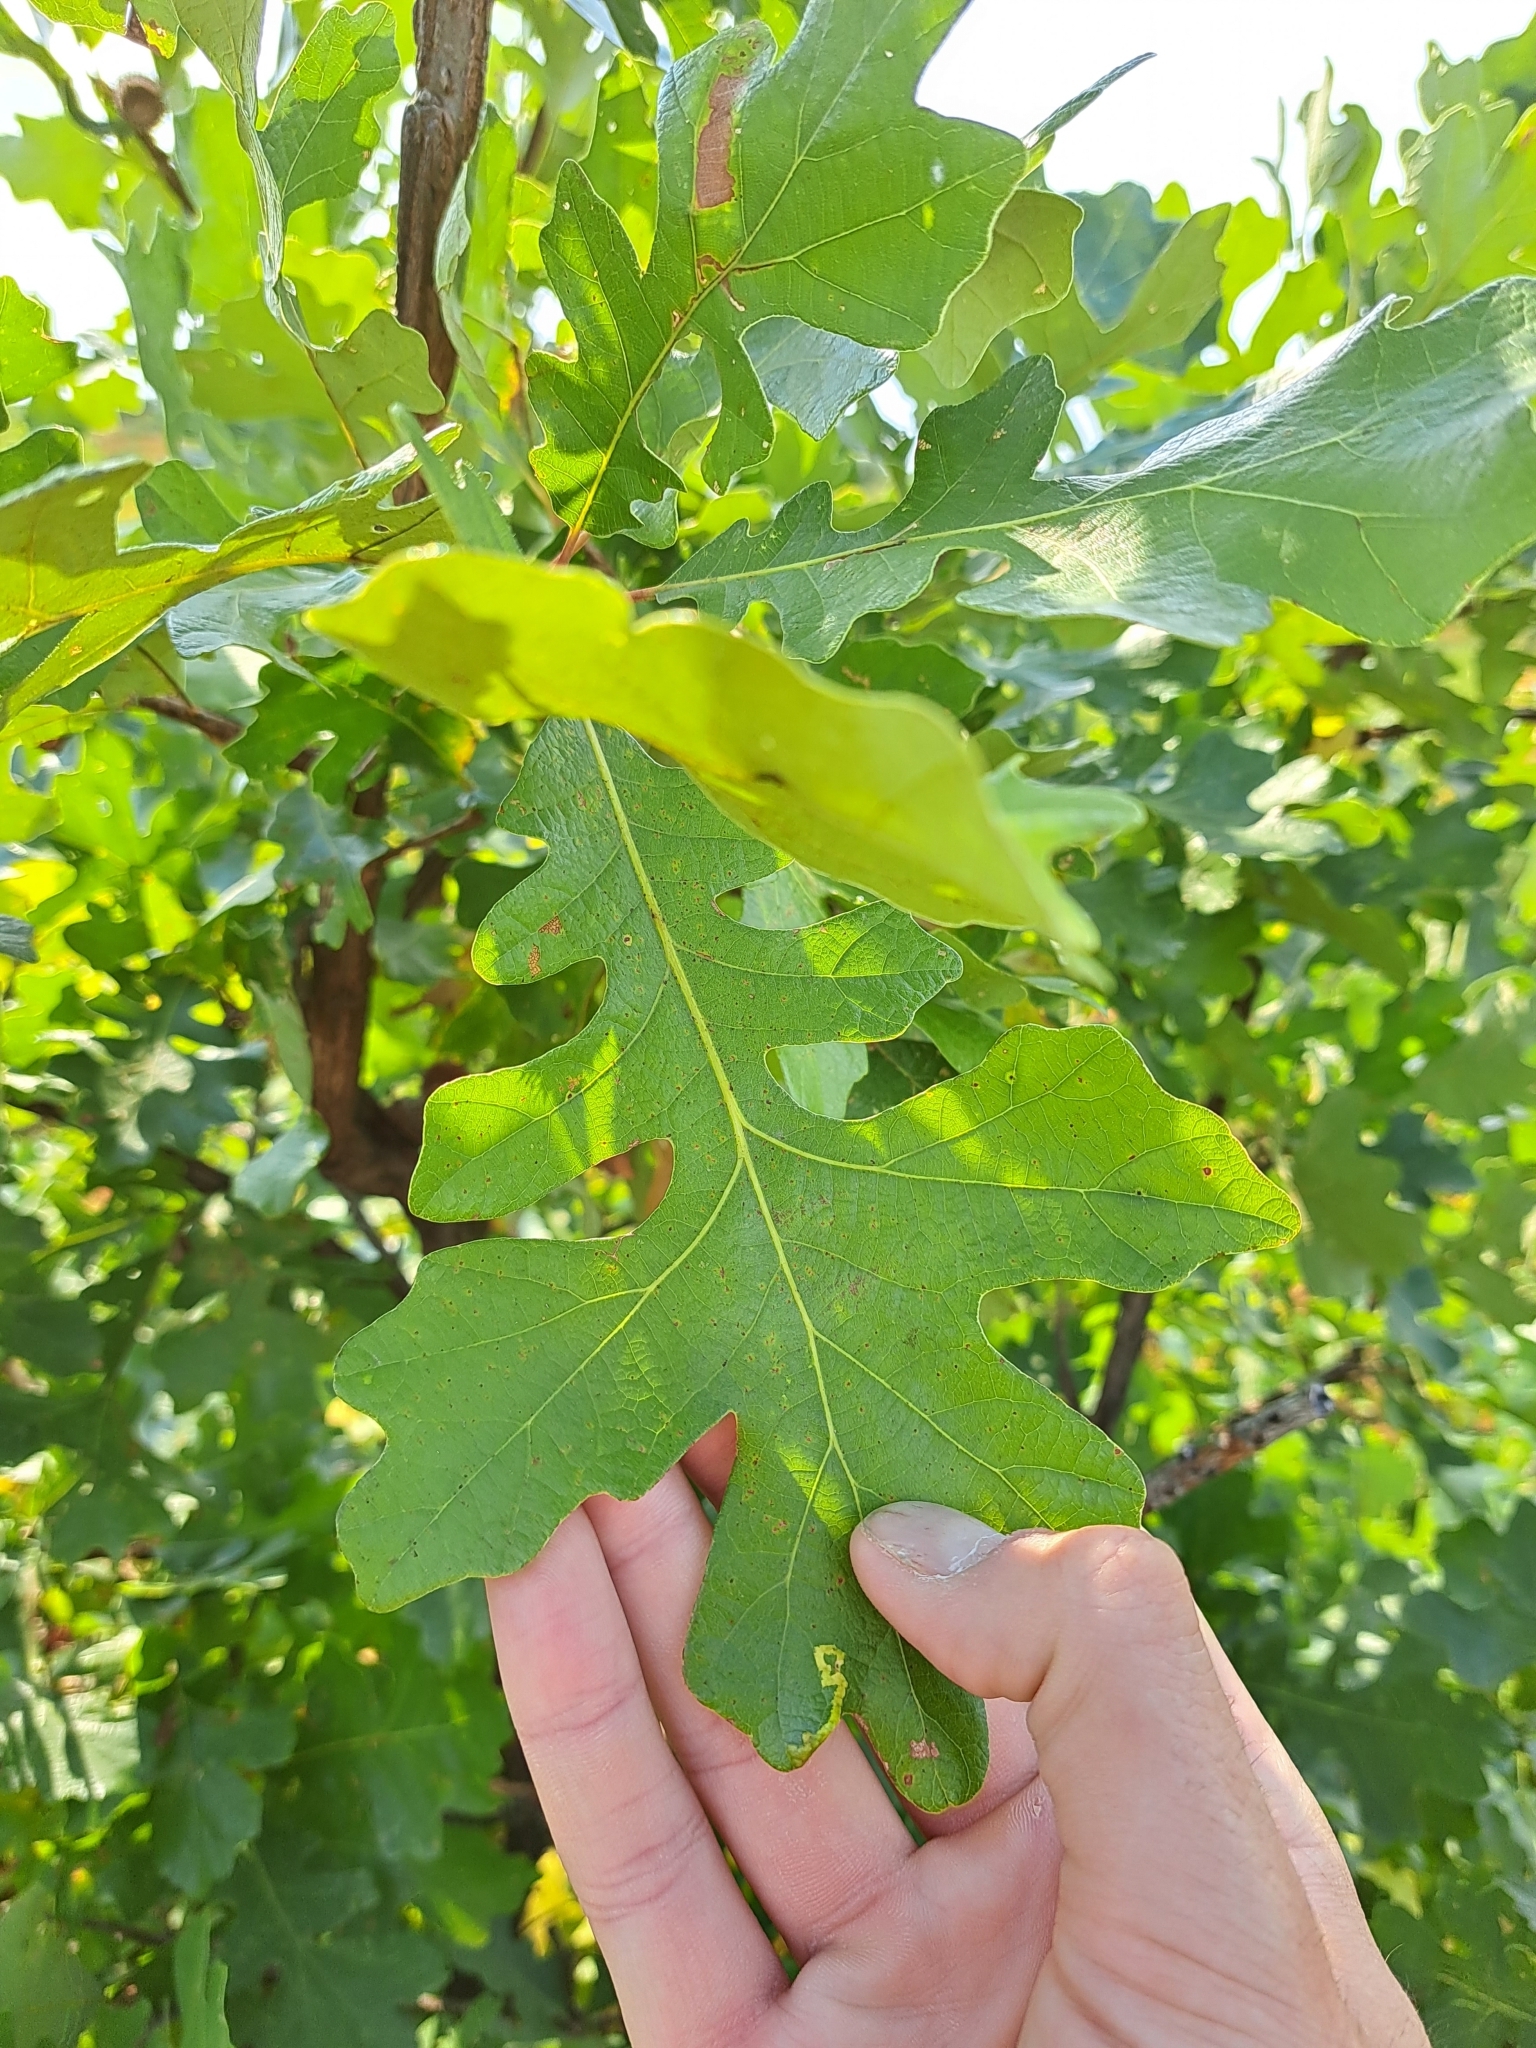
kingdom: Plantae
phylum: Tracheophyta
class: Magnoliopsida
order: Fagales
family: Fagaceae
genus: Quercus
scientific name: Quercus macrocarpa
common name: Bur oak
